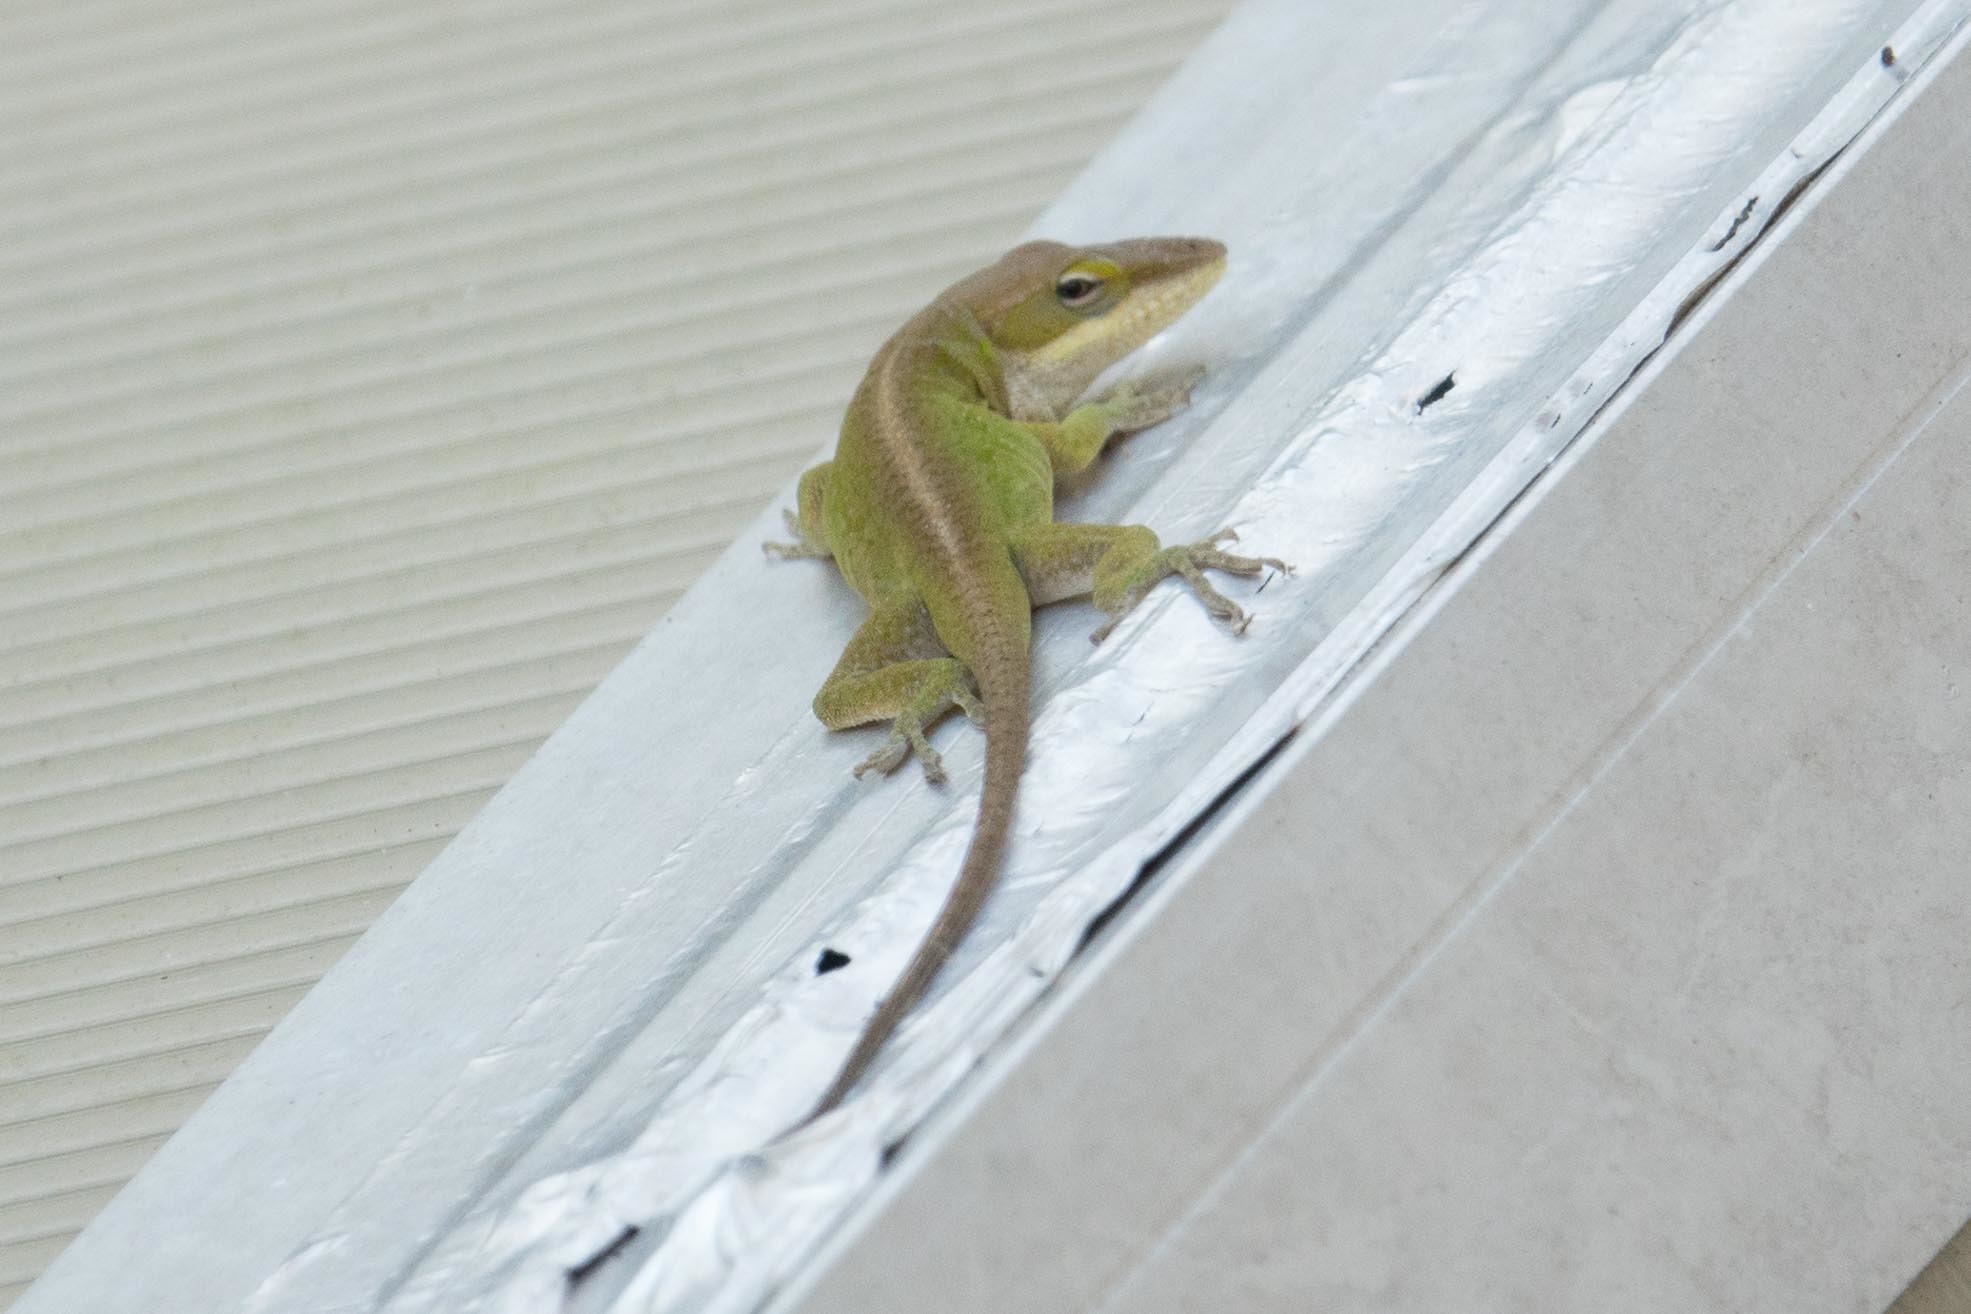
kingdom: Animalia
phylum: Chordata
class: Squamata
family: Dactyloidae
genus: Anolis
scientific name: Anolis carolinensis
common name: Green anole
